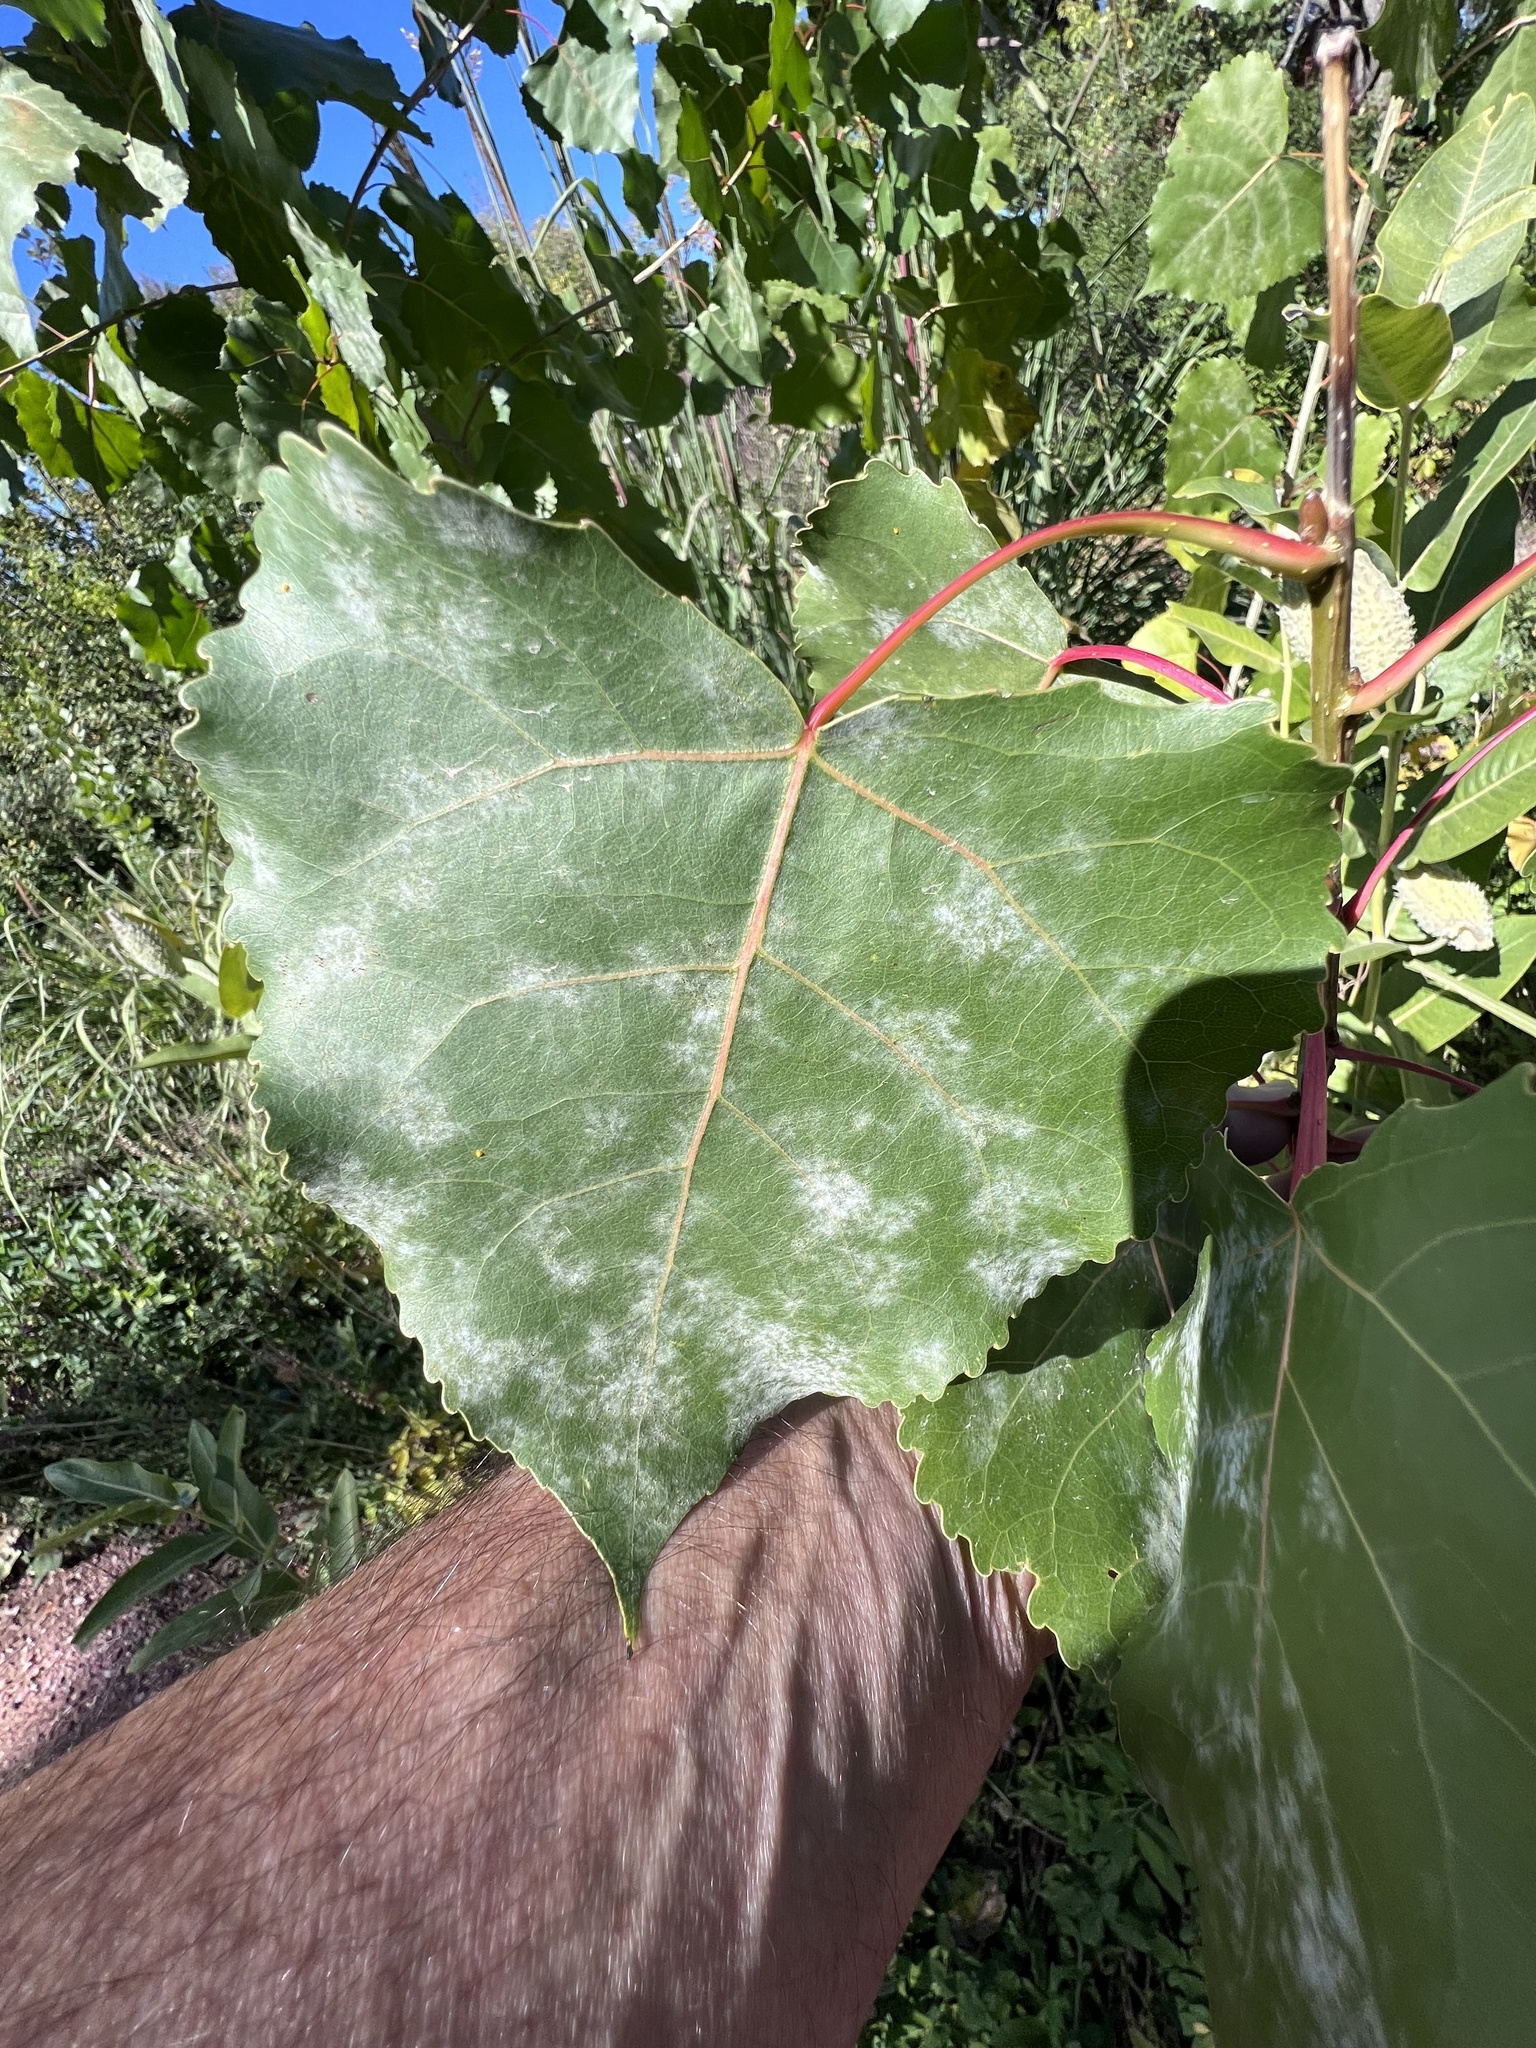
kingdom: Fungi
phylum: Ascomycota
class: Leotiomycetes
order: Helotiales
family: Erysiphaceae
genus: Erysiphe
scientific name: Erysiphe adunca
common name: Willow mildew
